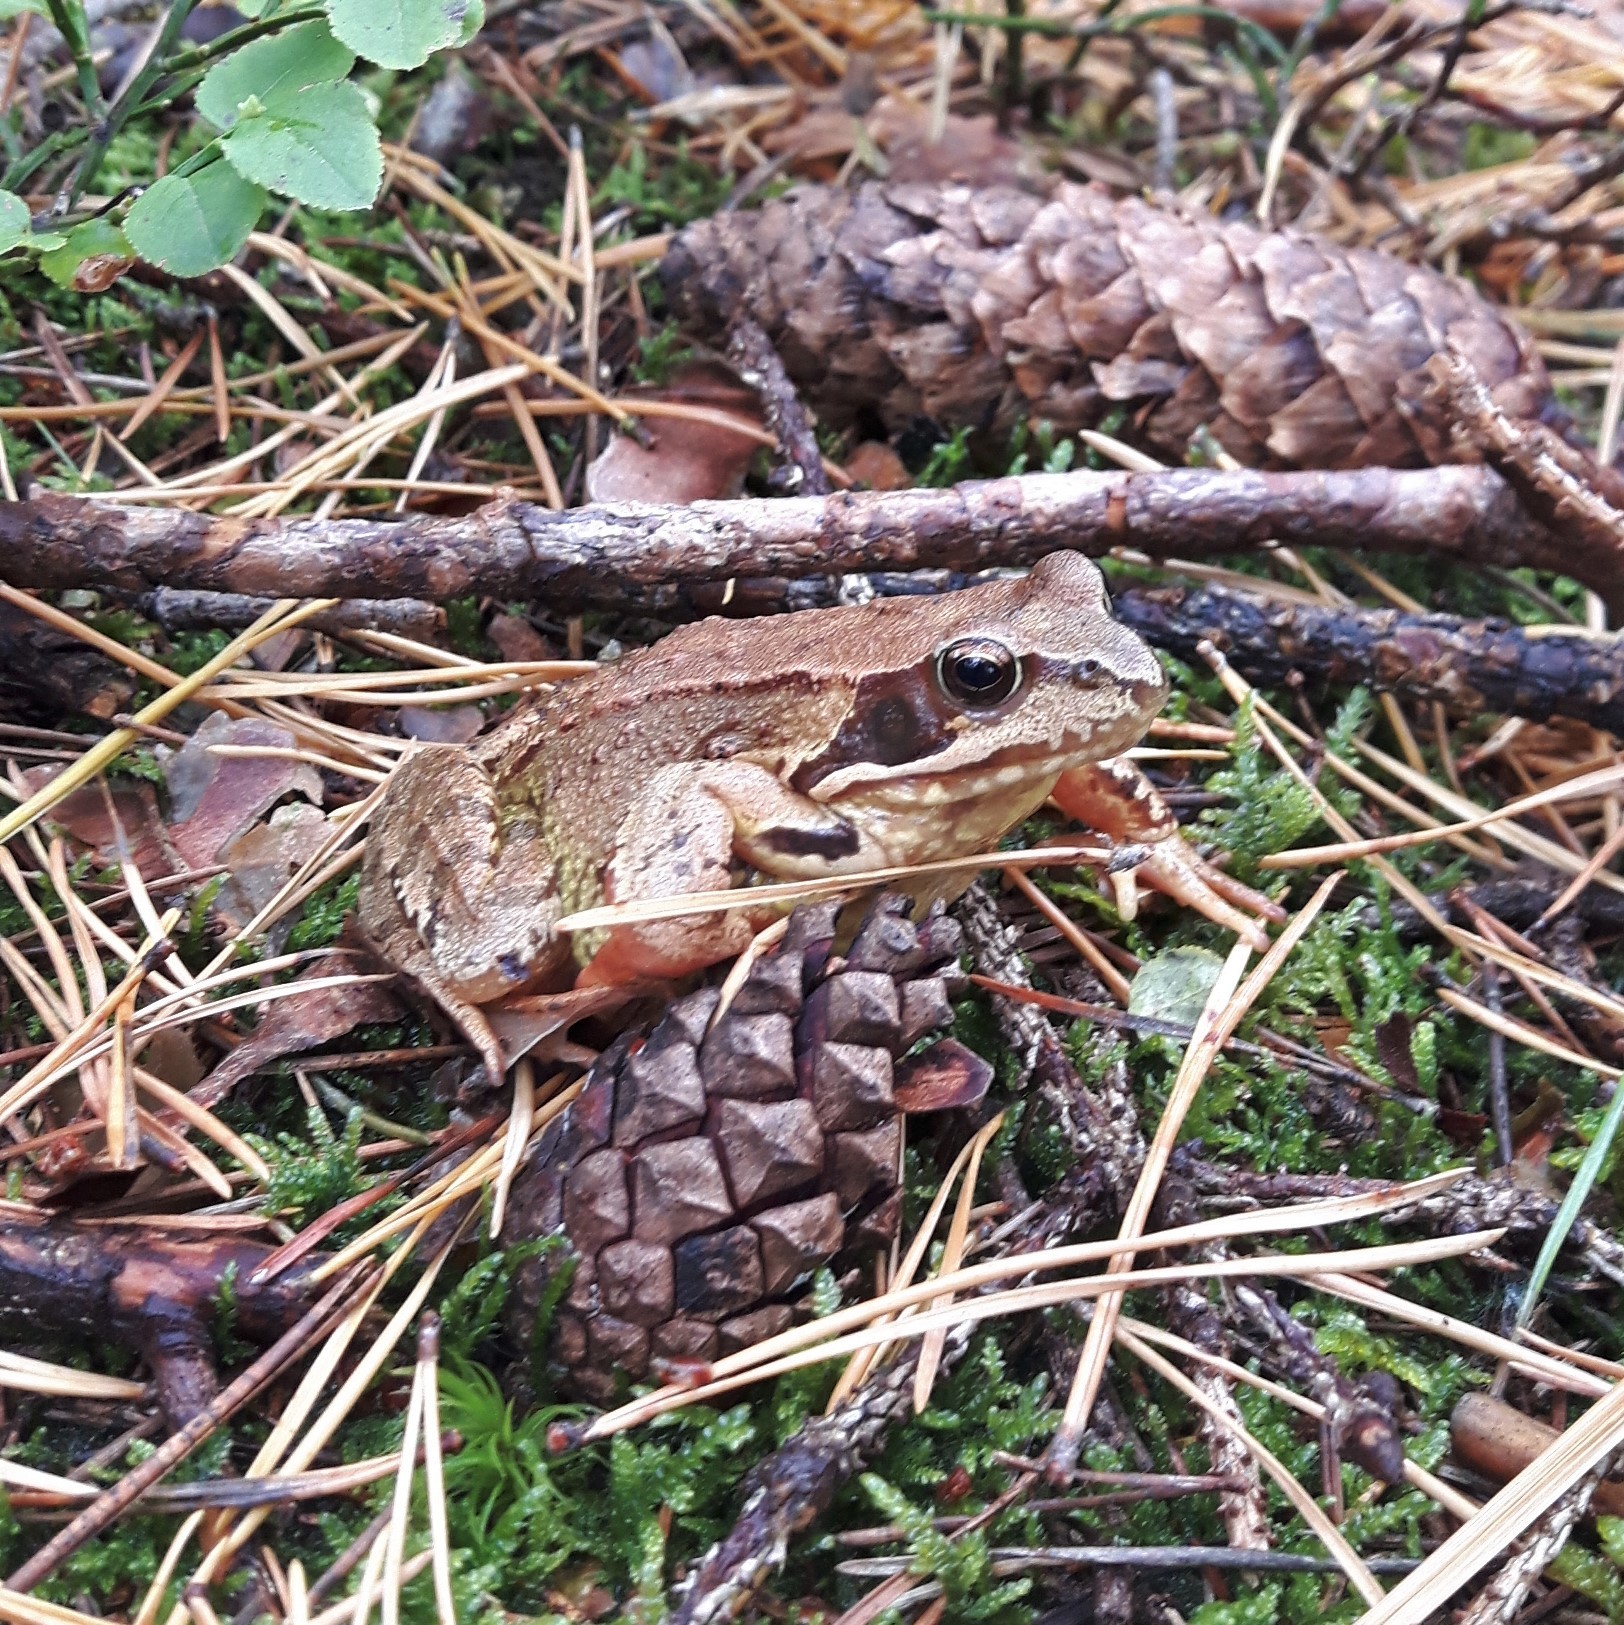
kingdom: Animalia
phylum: Chordata
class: Amphibia
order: Anura
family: Ranidae
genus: Rana
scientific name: Rana temporaria
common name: Common frog
